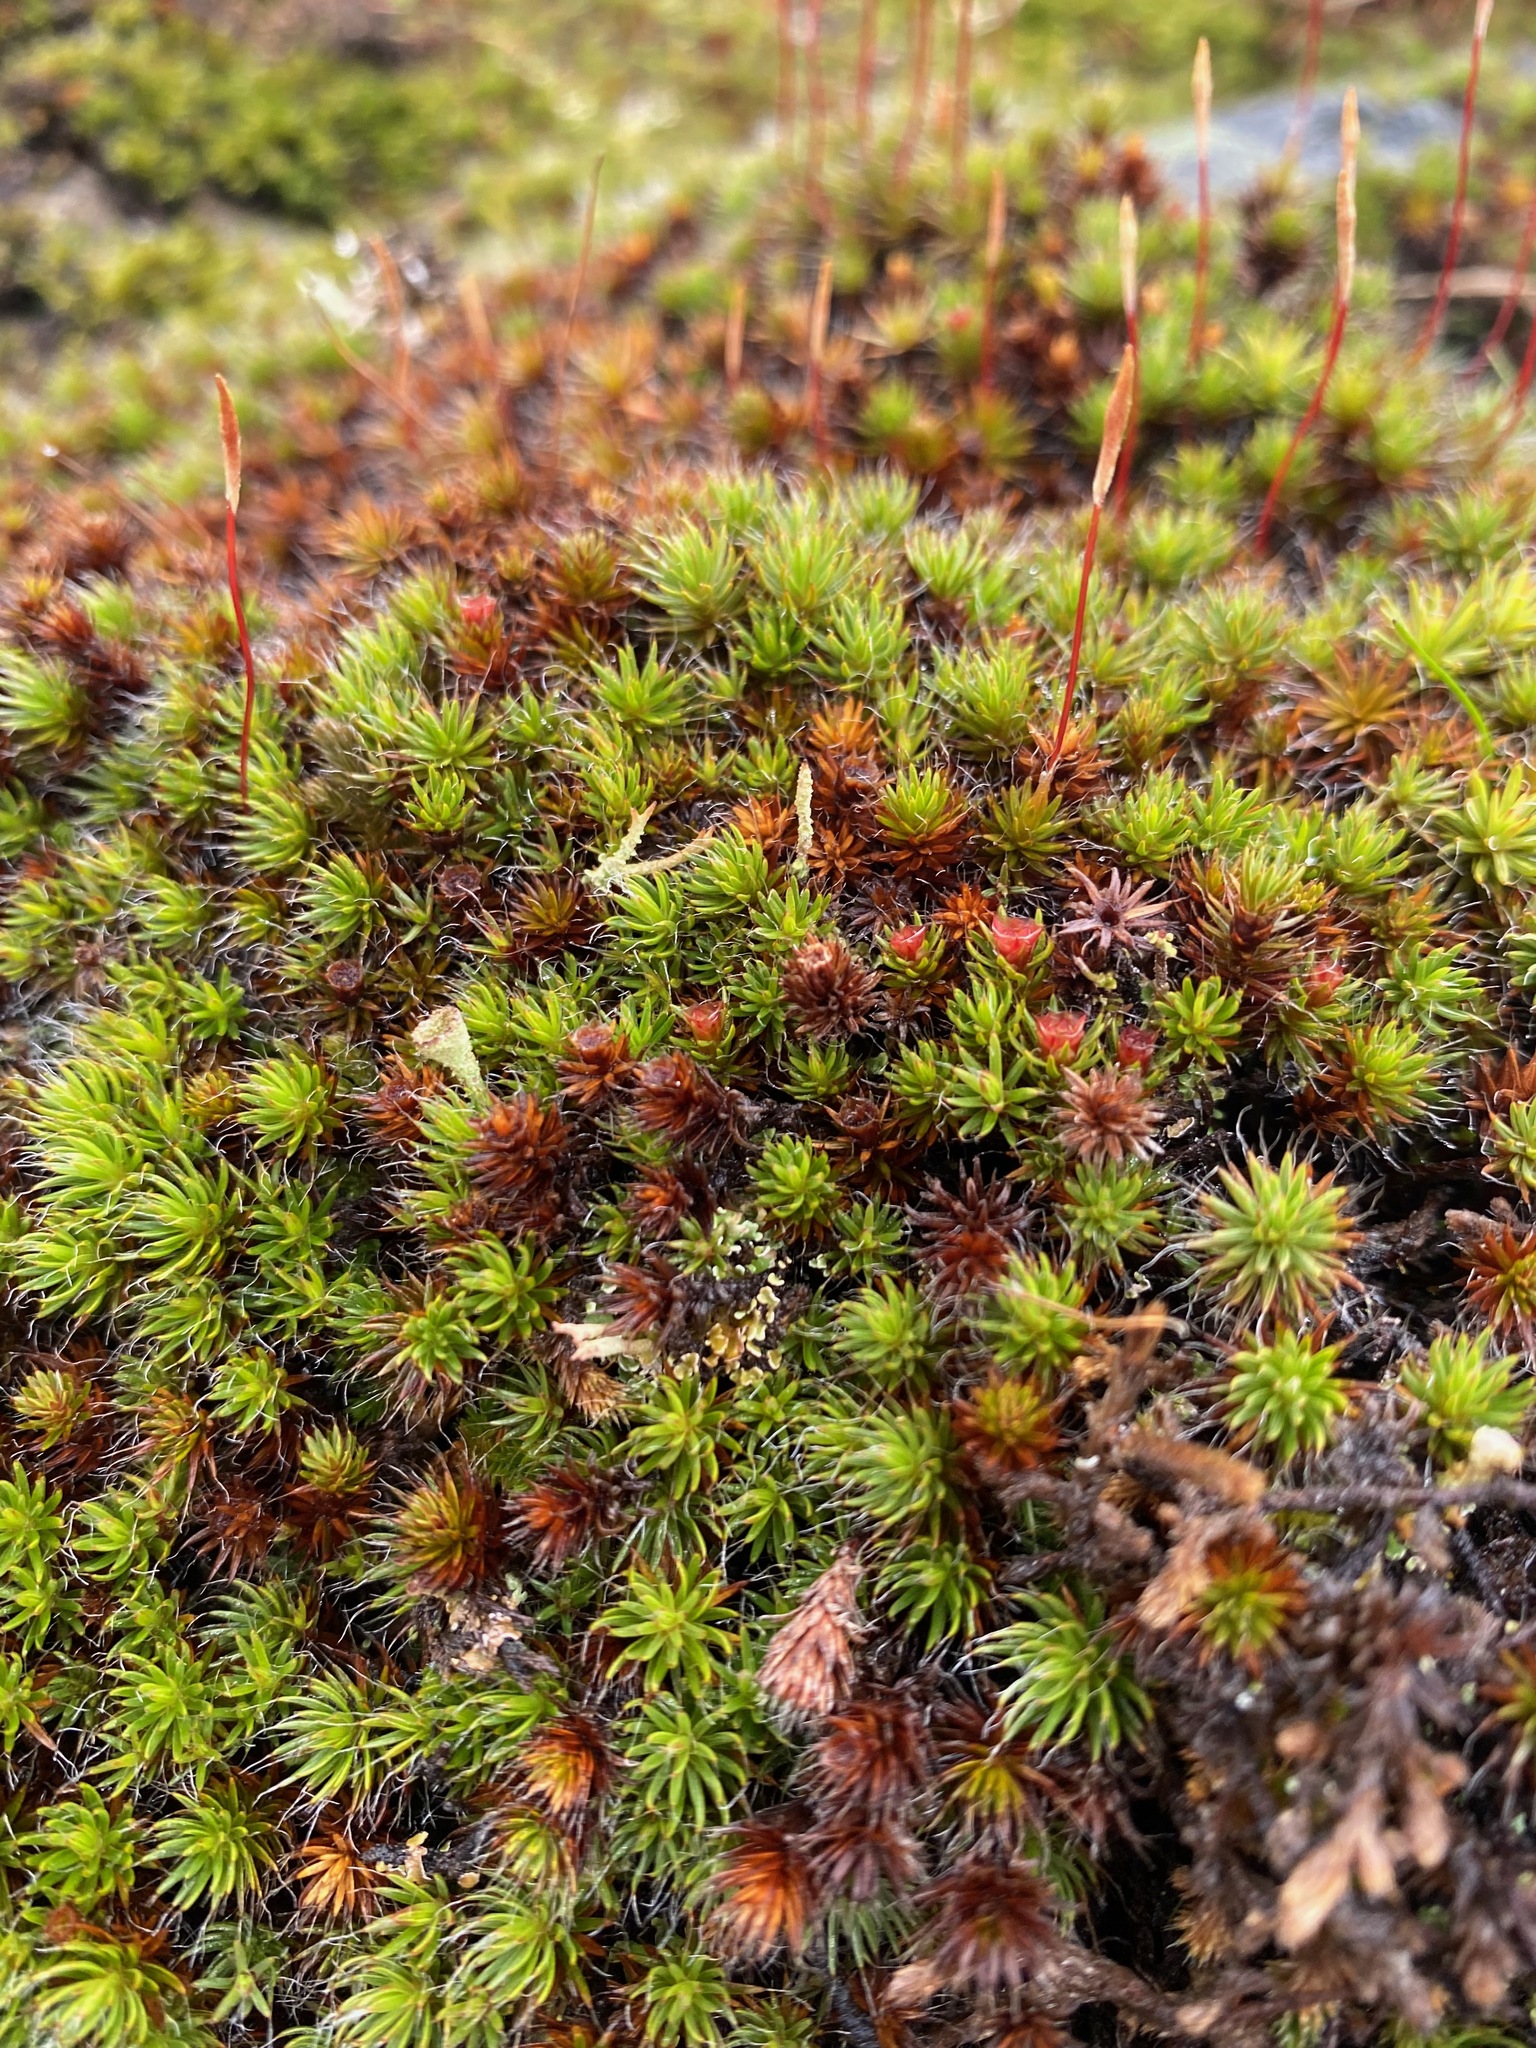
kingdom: Plantae
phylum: Bryophyta
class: Polytrichopsida
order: Polytrichales
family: Polytrichaceae
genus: Polytrichum
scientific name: Polytrichum piliferum
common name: Bristly haircap
